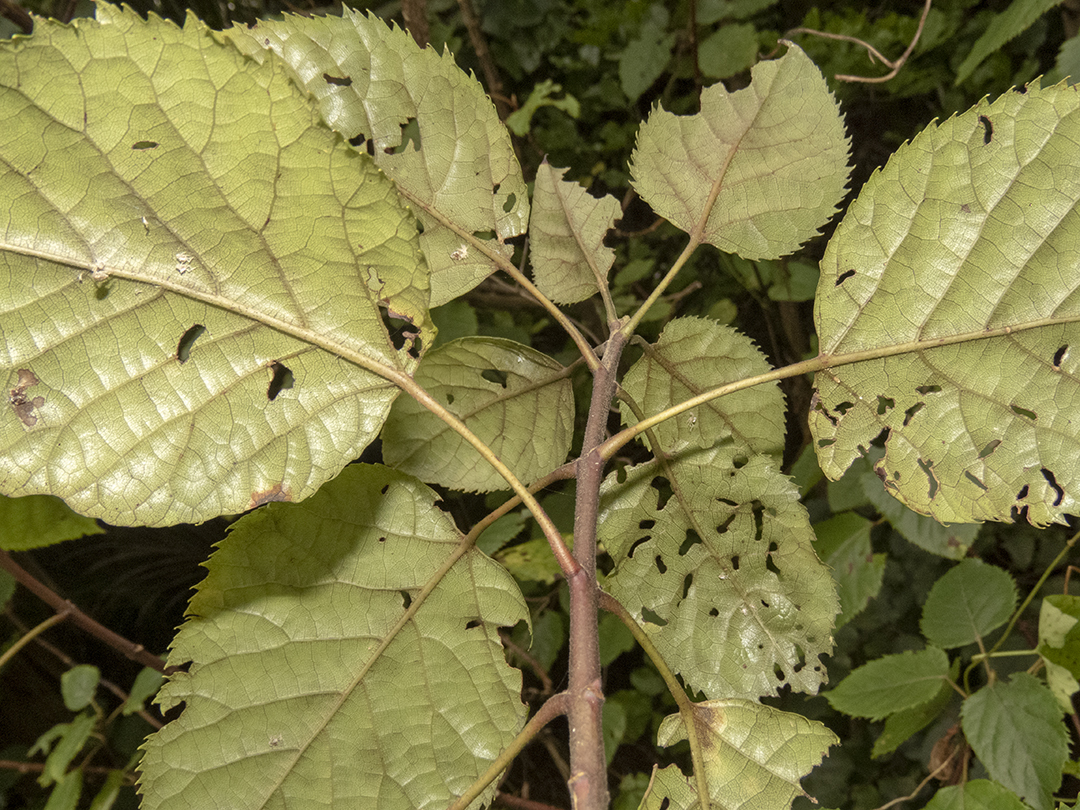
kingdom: Plantae
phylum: Tracheophyta
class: Magnoliopsida
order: Oxalidales
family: Elaeocarpaceae
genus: Aristotelia
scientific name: Aristotelia serrata
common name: New zealand wineberry
